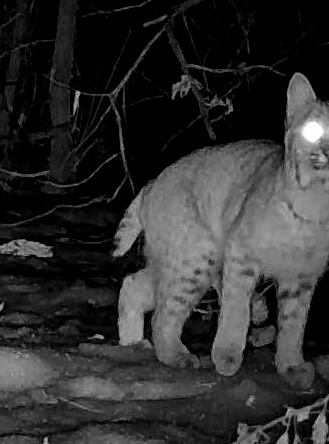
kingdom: Animalia
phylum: Chordata
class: Mammalia
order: Carnivora
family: Felidae
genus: Lynx
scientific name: Lynx rufus
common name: Bobcat
